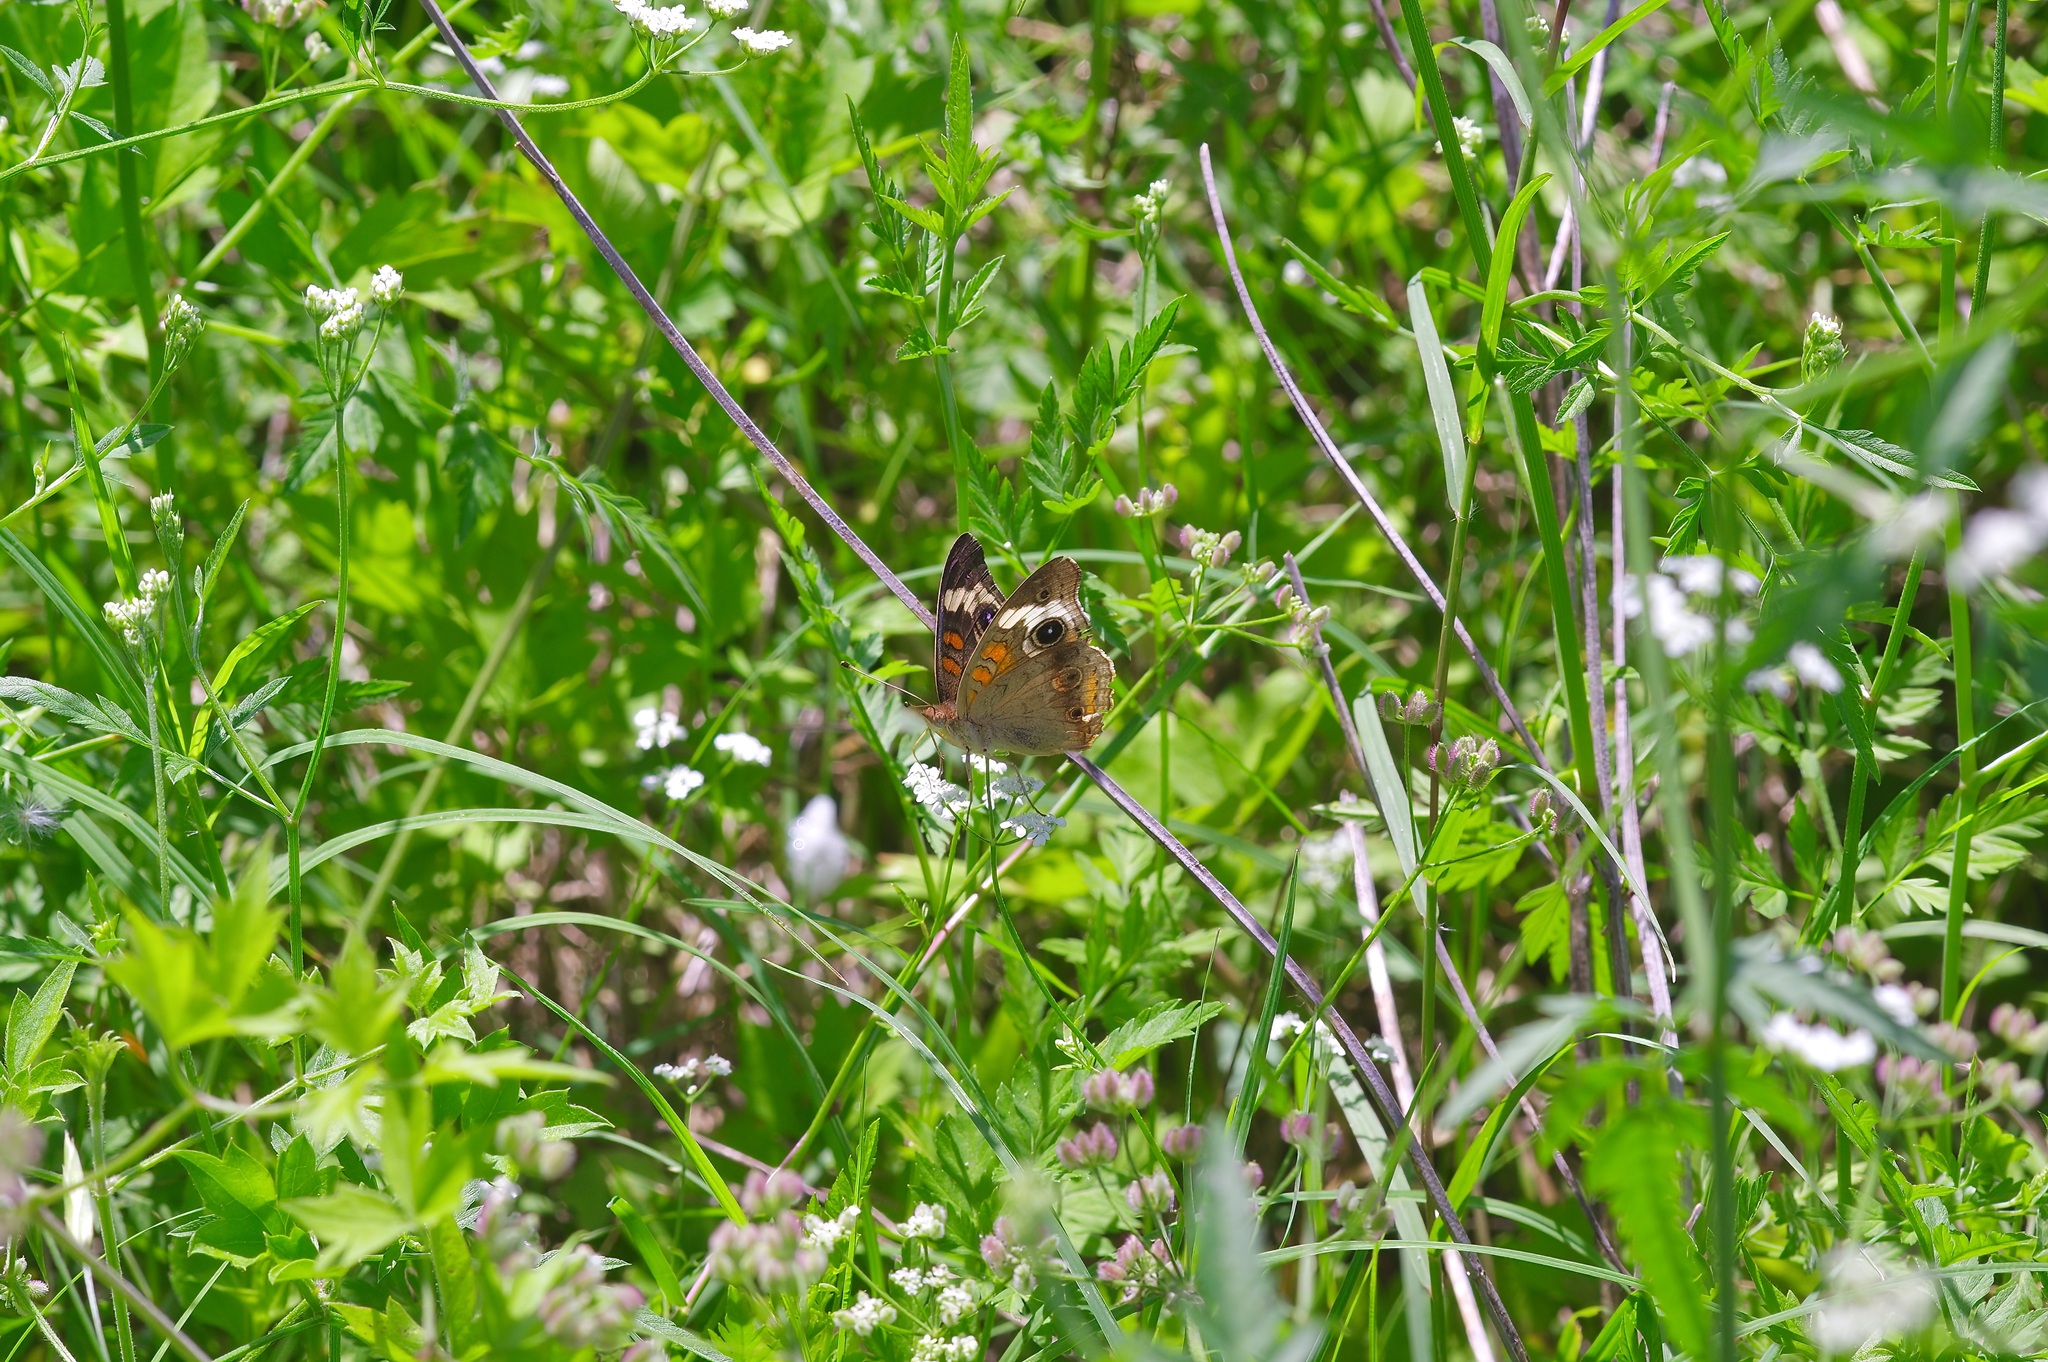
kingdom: Animalia
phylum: Arthropoda
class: Insecta
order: Lepidoptera
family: Nymphalidae
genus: Junonia
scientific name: Junonia coenia
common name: Common buckeye
